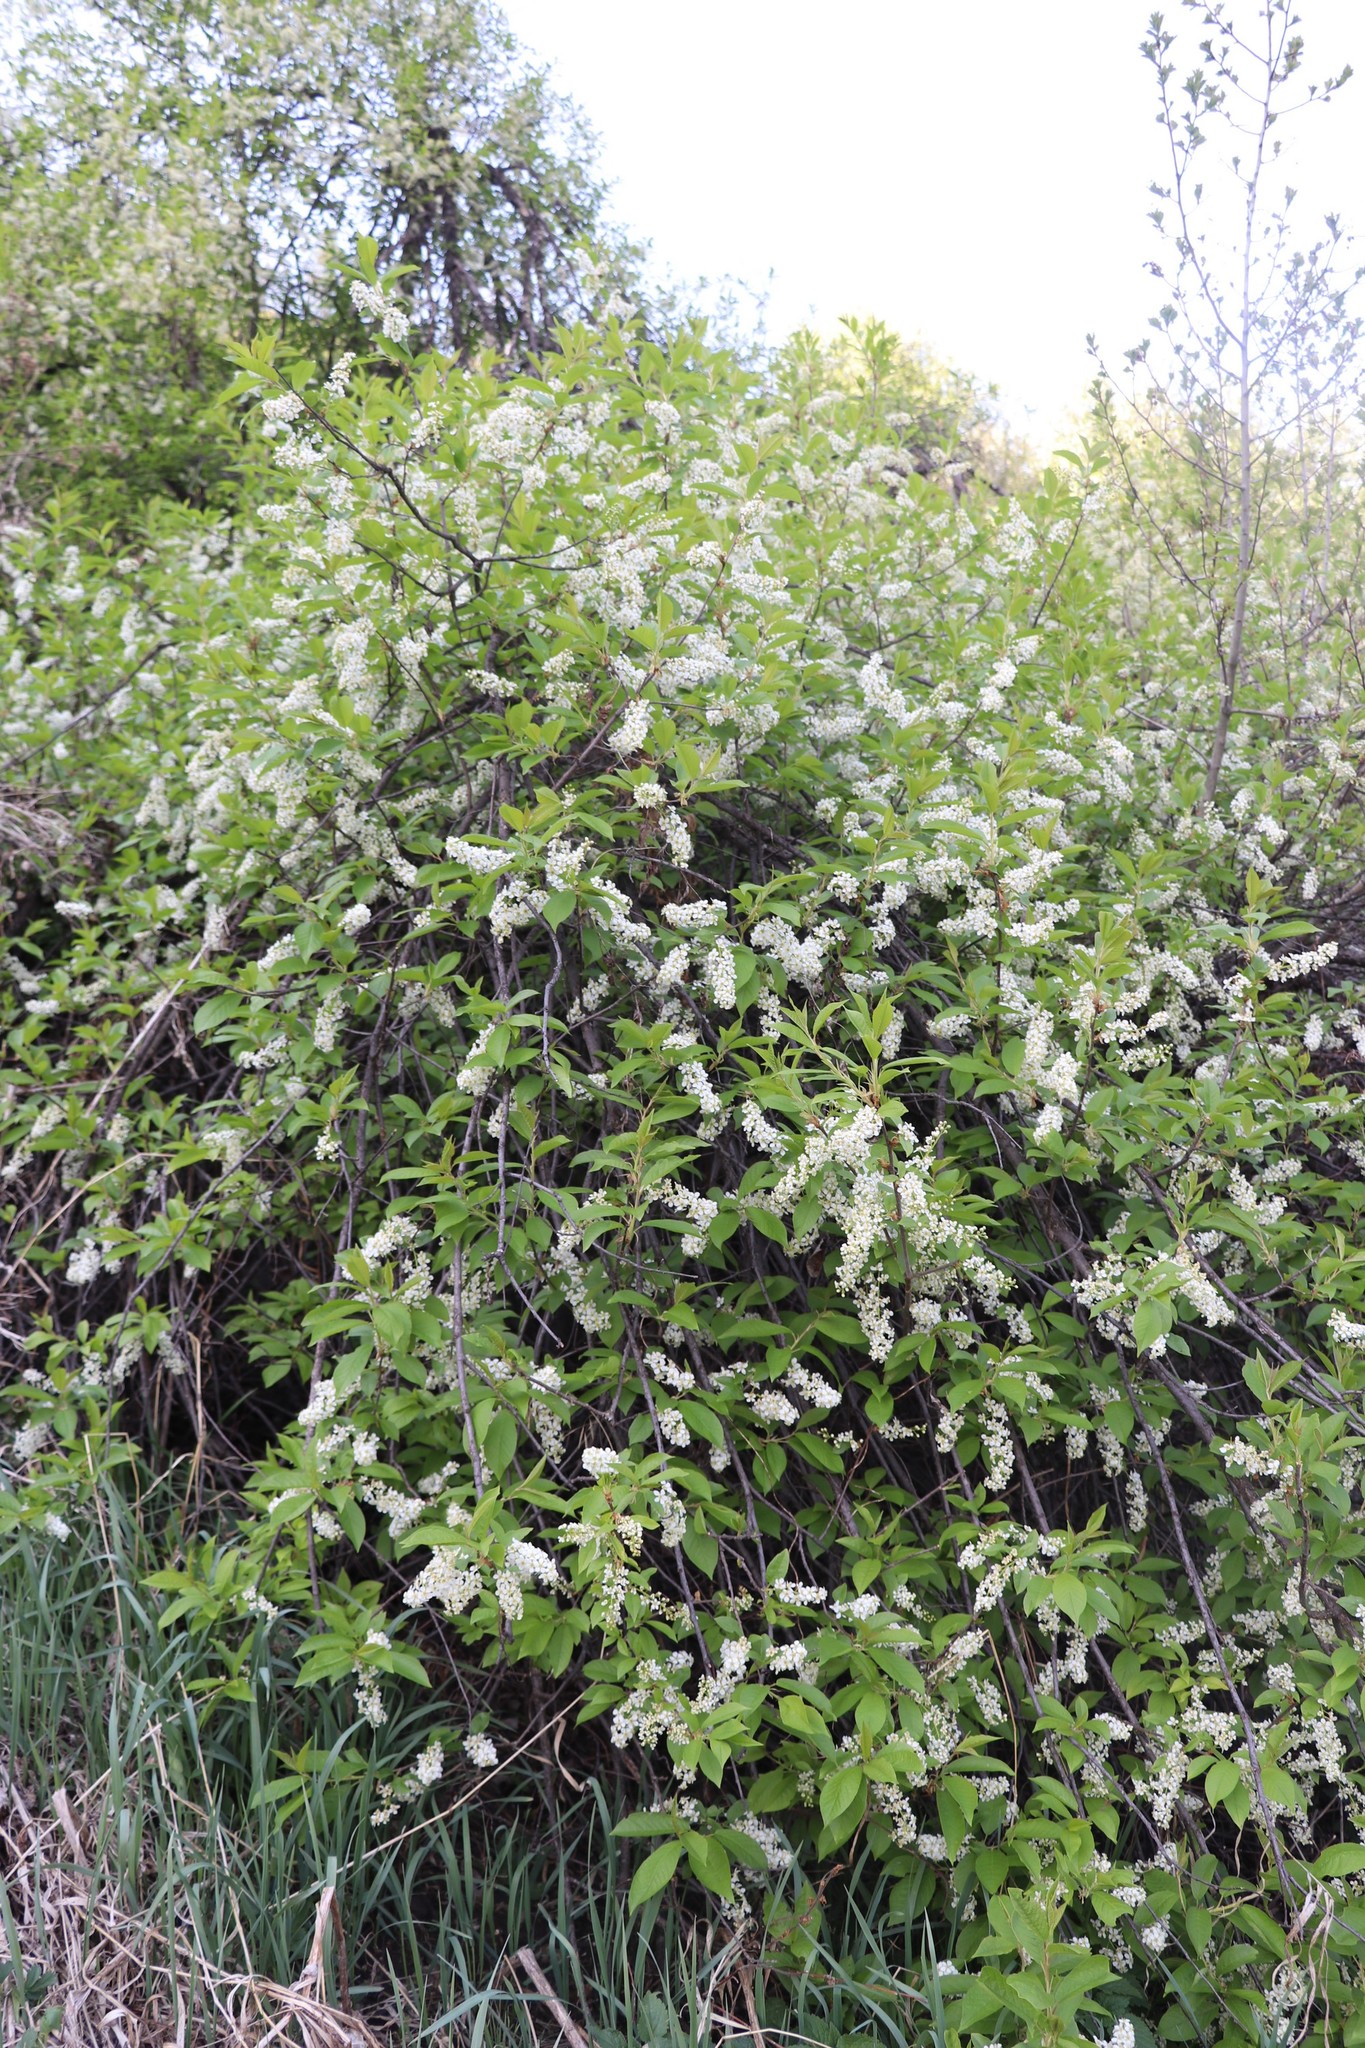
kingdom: Plantae
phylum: Tracheophyta
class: Magnoliopsida
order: Rosales
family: Rosaceae
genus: Prunus
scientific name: Prunus padus
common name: Bird cherry
